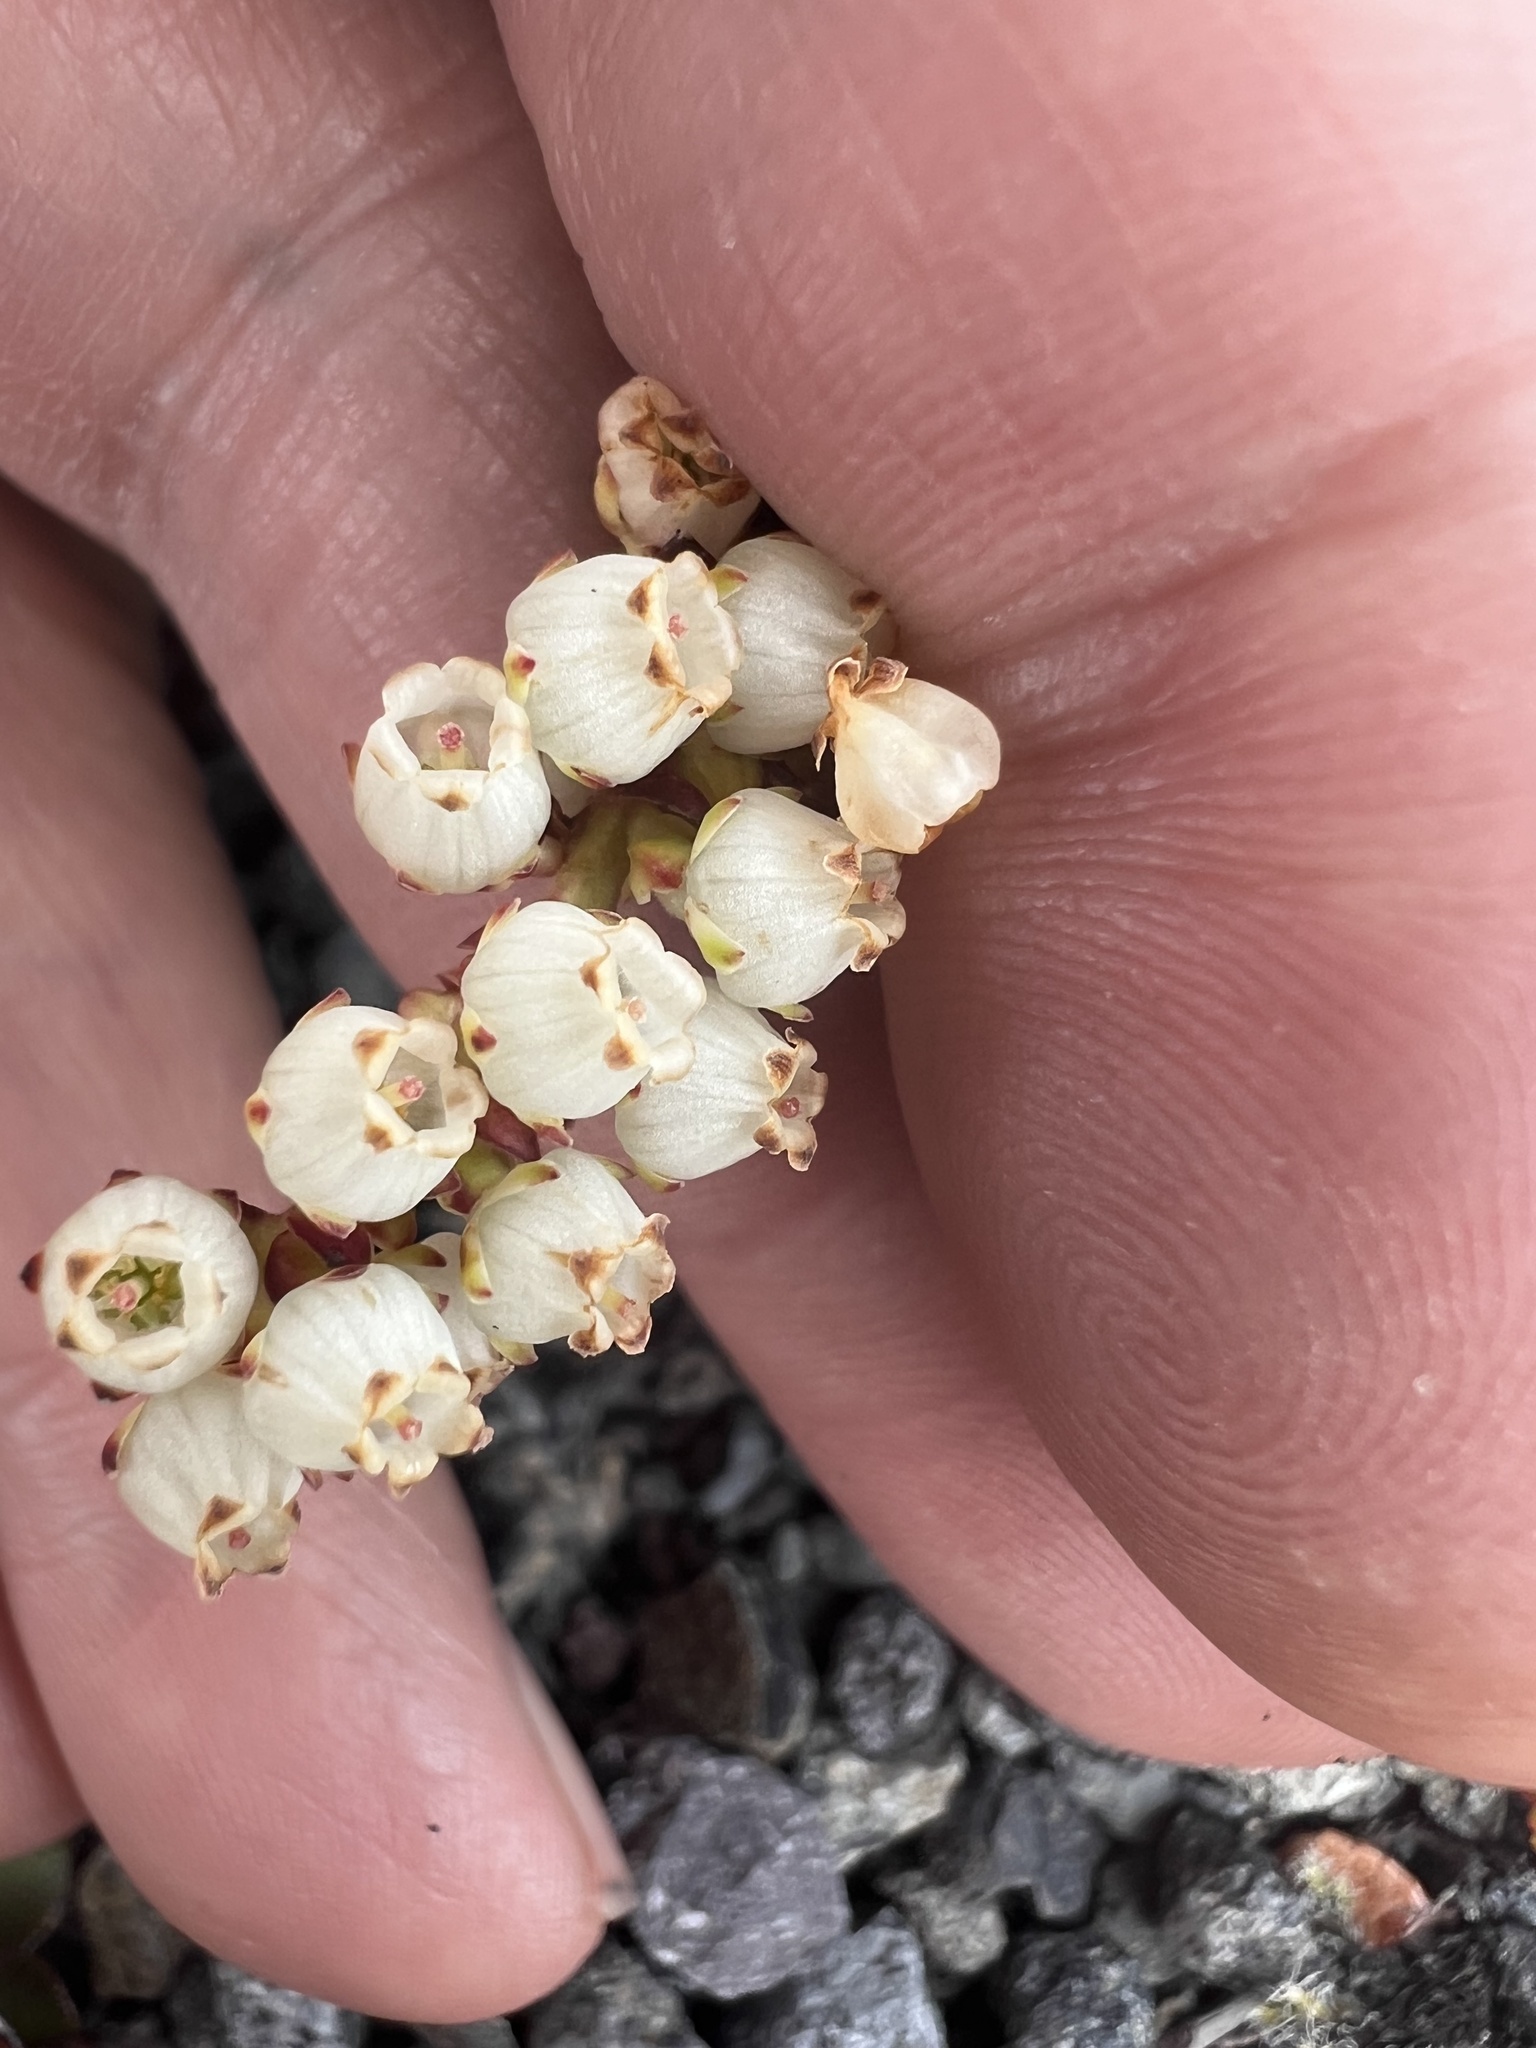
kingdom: Plantae
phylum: Tracheophyta
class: Magnoliopsida
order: Ericales
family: Ericaceae
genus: Gaultheria
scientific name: Gaultheria colensoi
